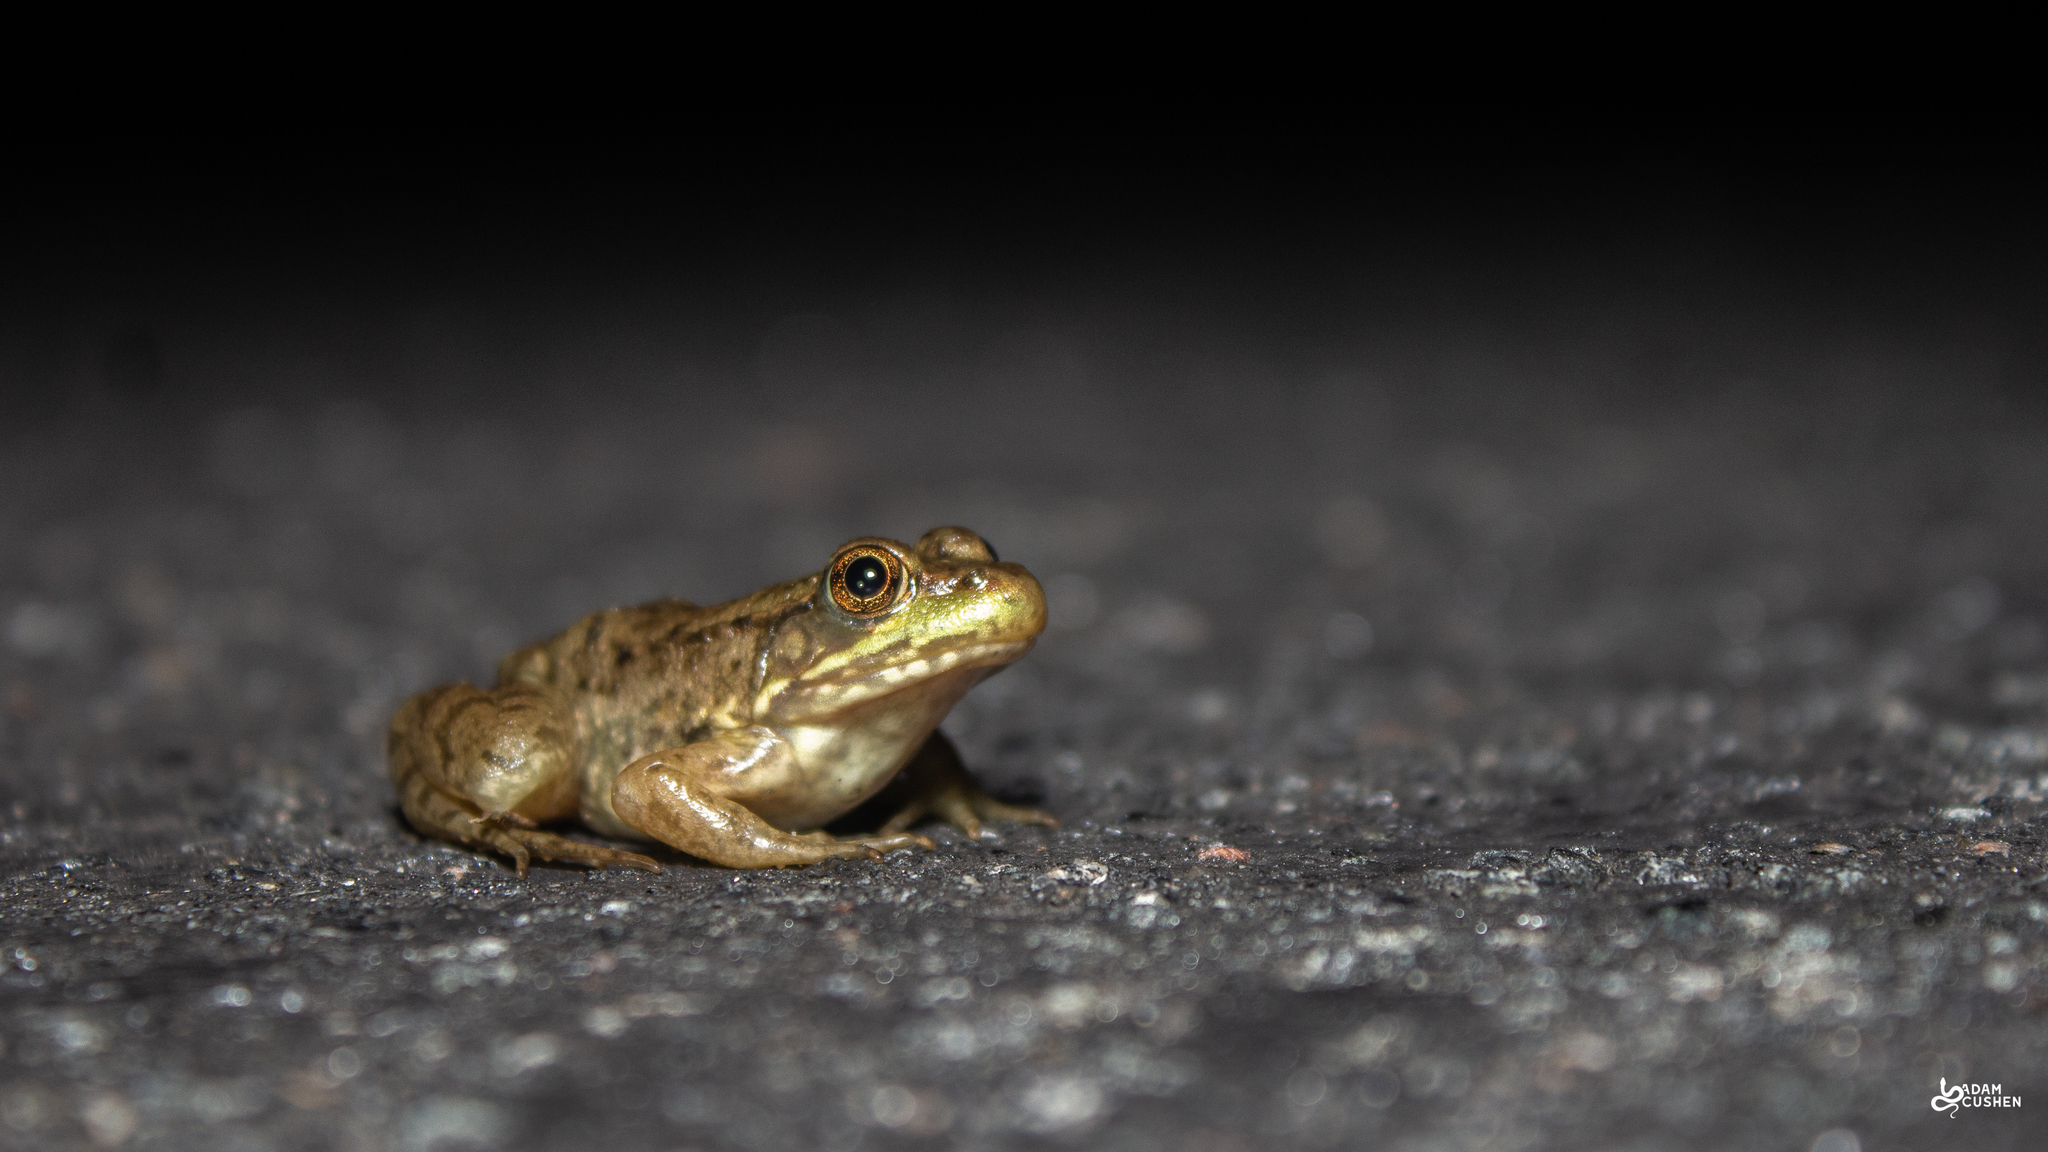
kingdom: Animalia
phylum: Chordata
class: Amphibia
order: Anura
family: Ranidae
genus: Lithobates
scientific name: Lithobates clamitans
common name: Green frog
